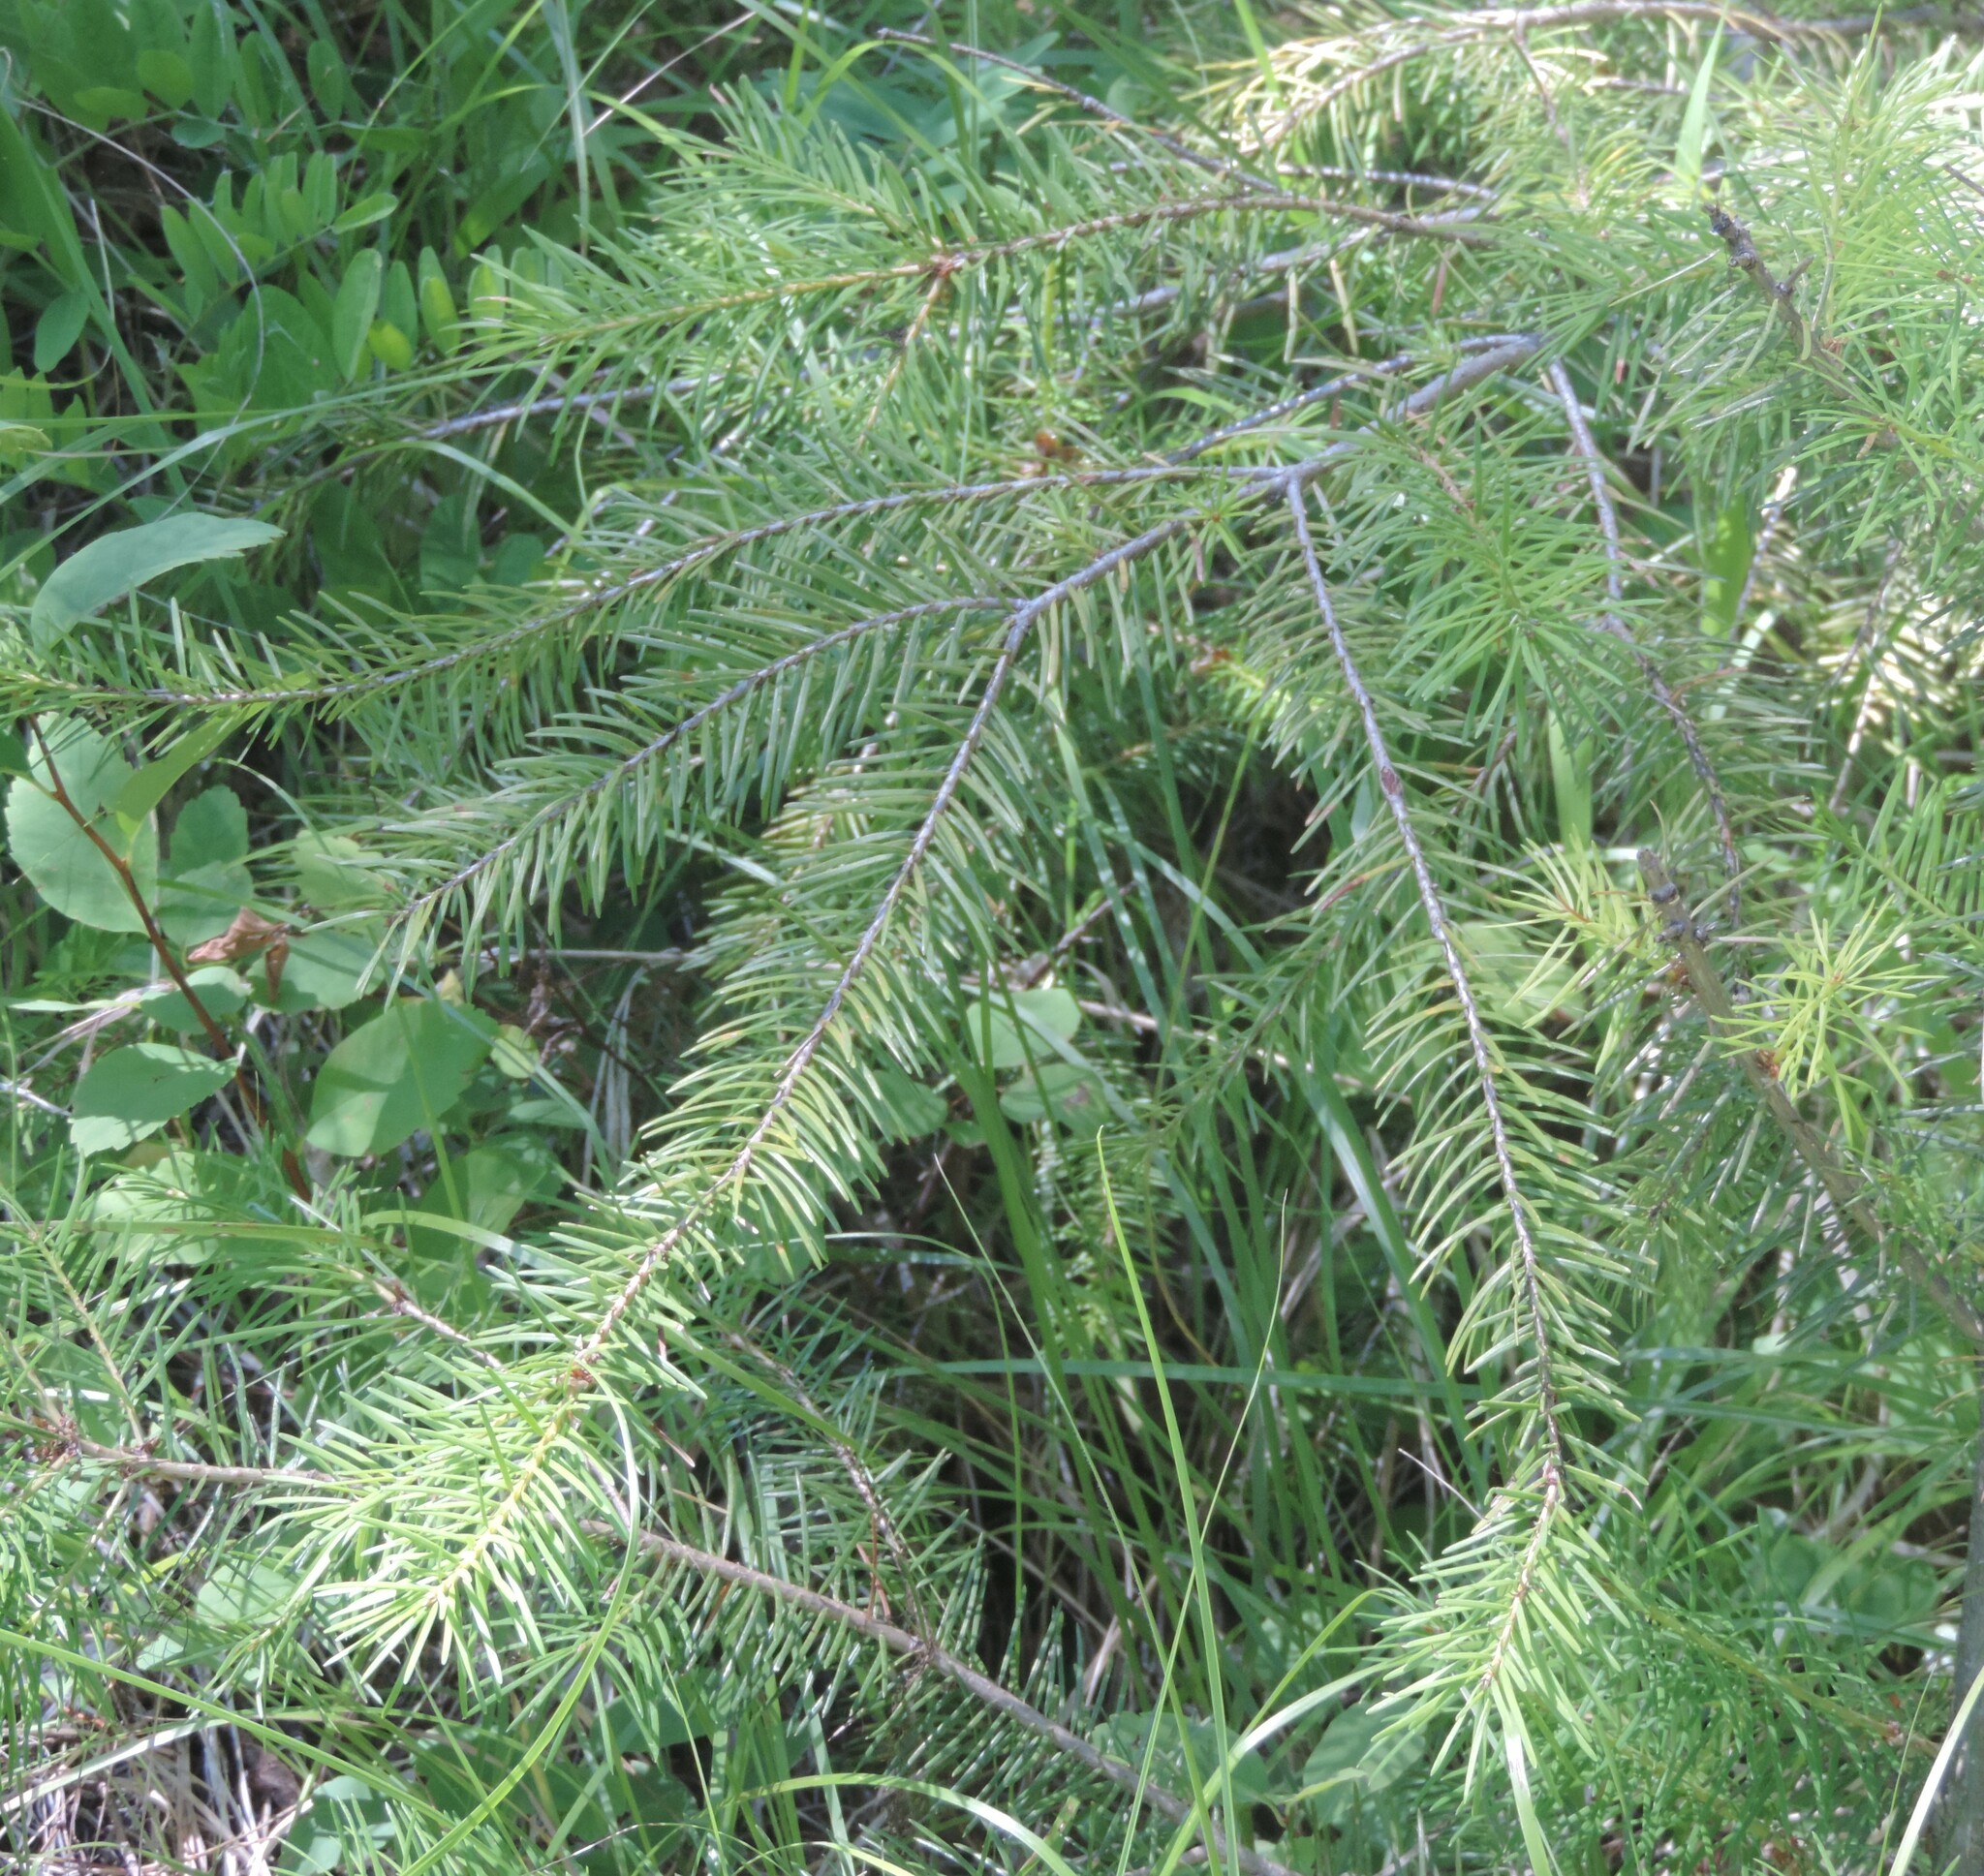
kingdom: Plantae
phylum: Tracheophyta
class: Pinopsida
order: Pinales
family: Pinaceae
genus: Pseudotsuga
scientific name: Pseudotsuga menziesii
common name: Douglas fir
